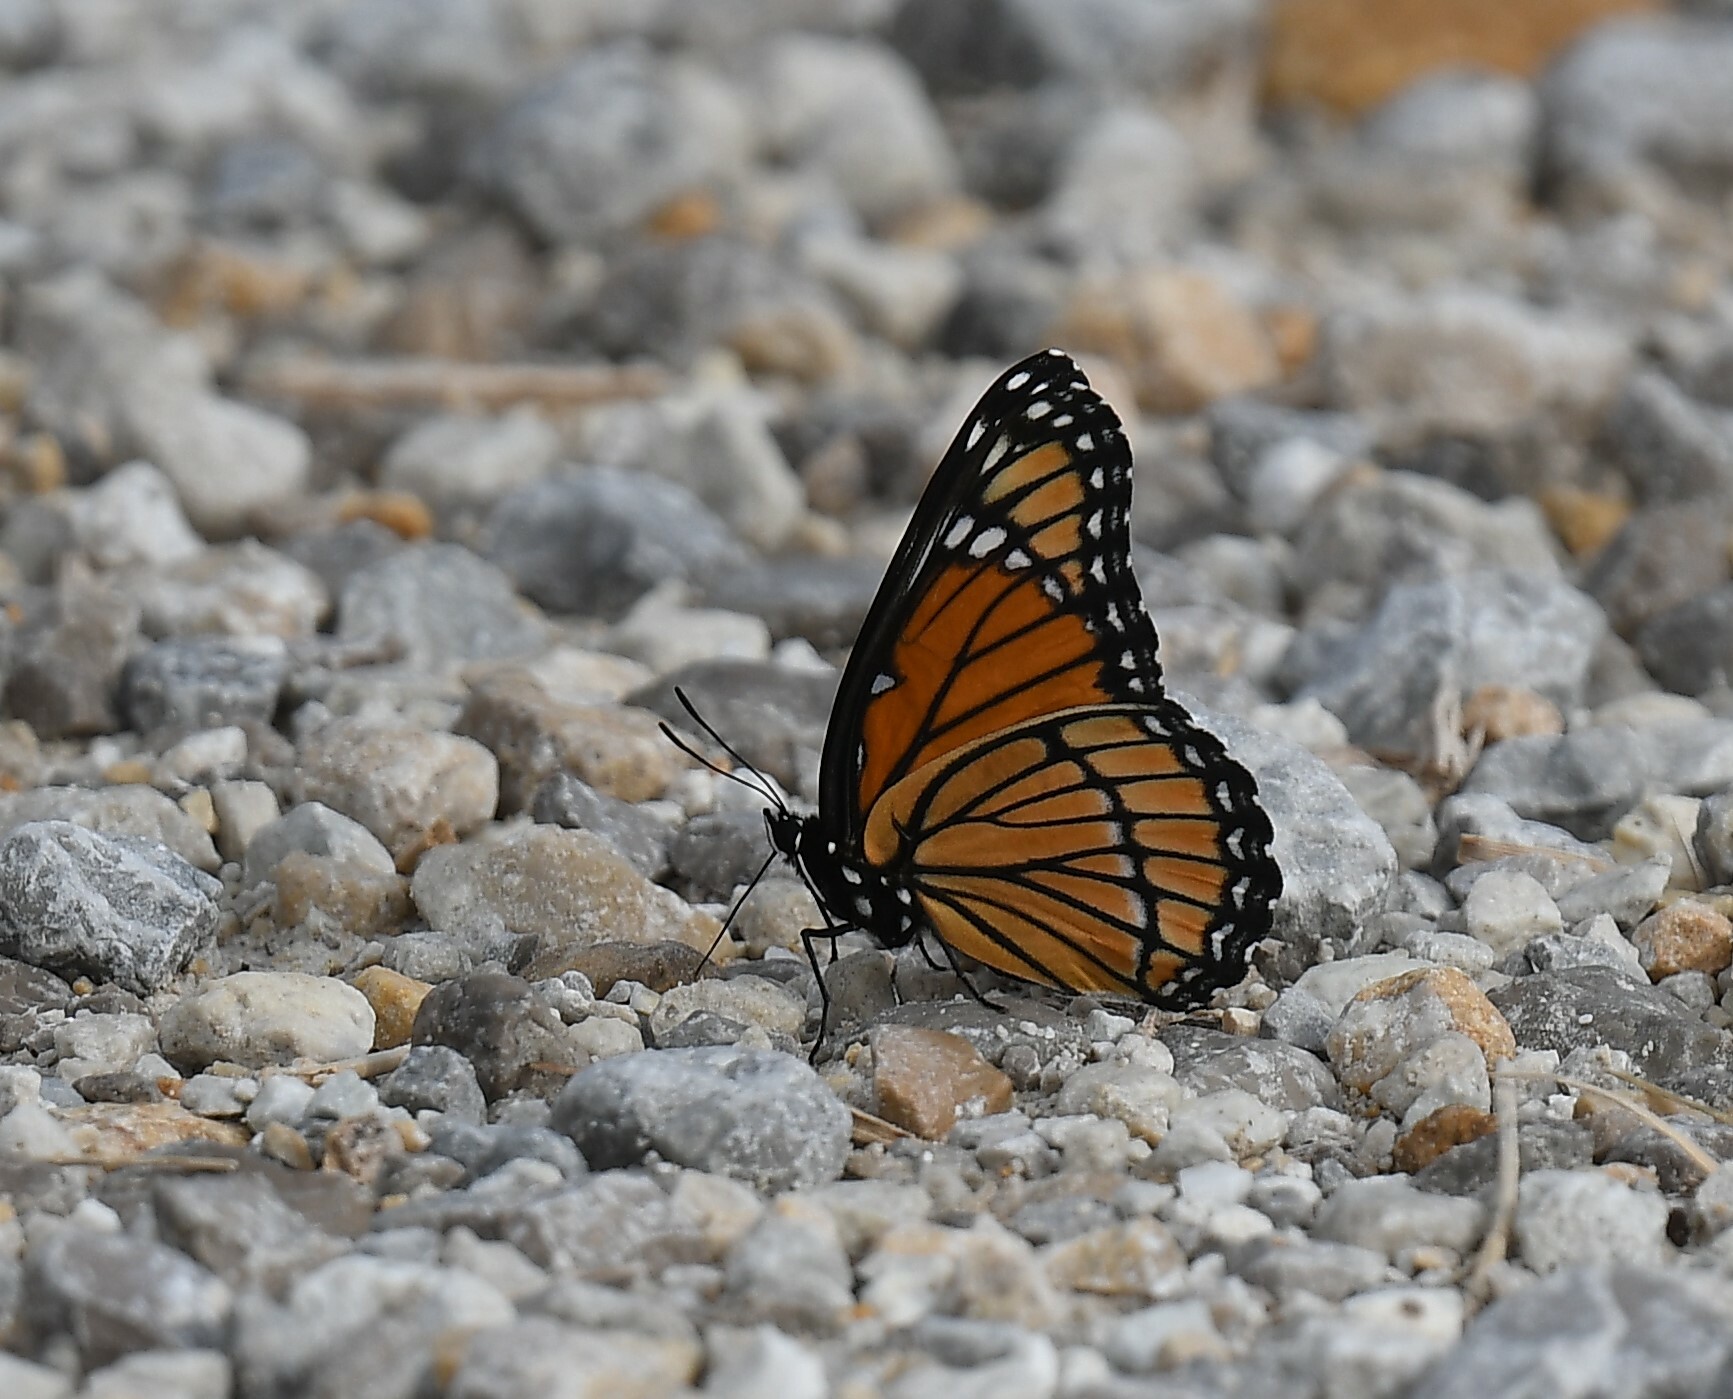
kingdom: Animalia
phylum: Arthropoda
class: Insecta
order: Lepidoptera
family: Nymphalidae
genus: Limenitis
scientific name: Limenitis archippus
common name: Viceroy
